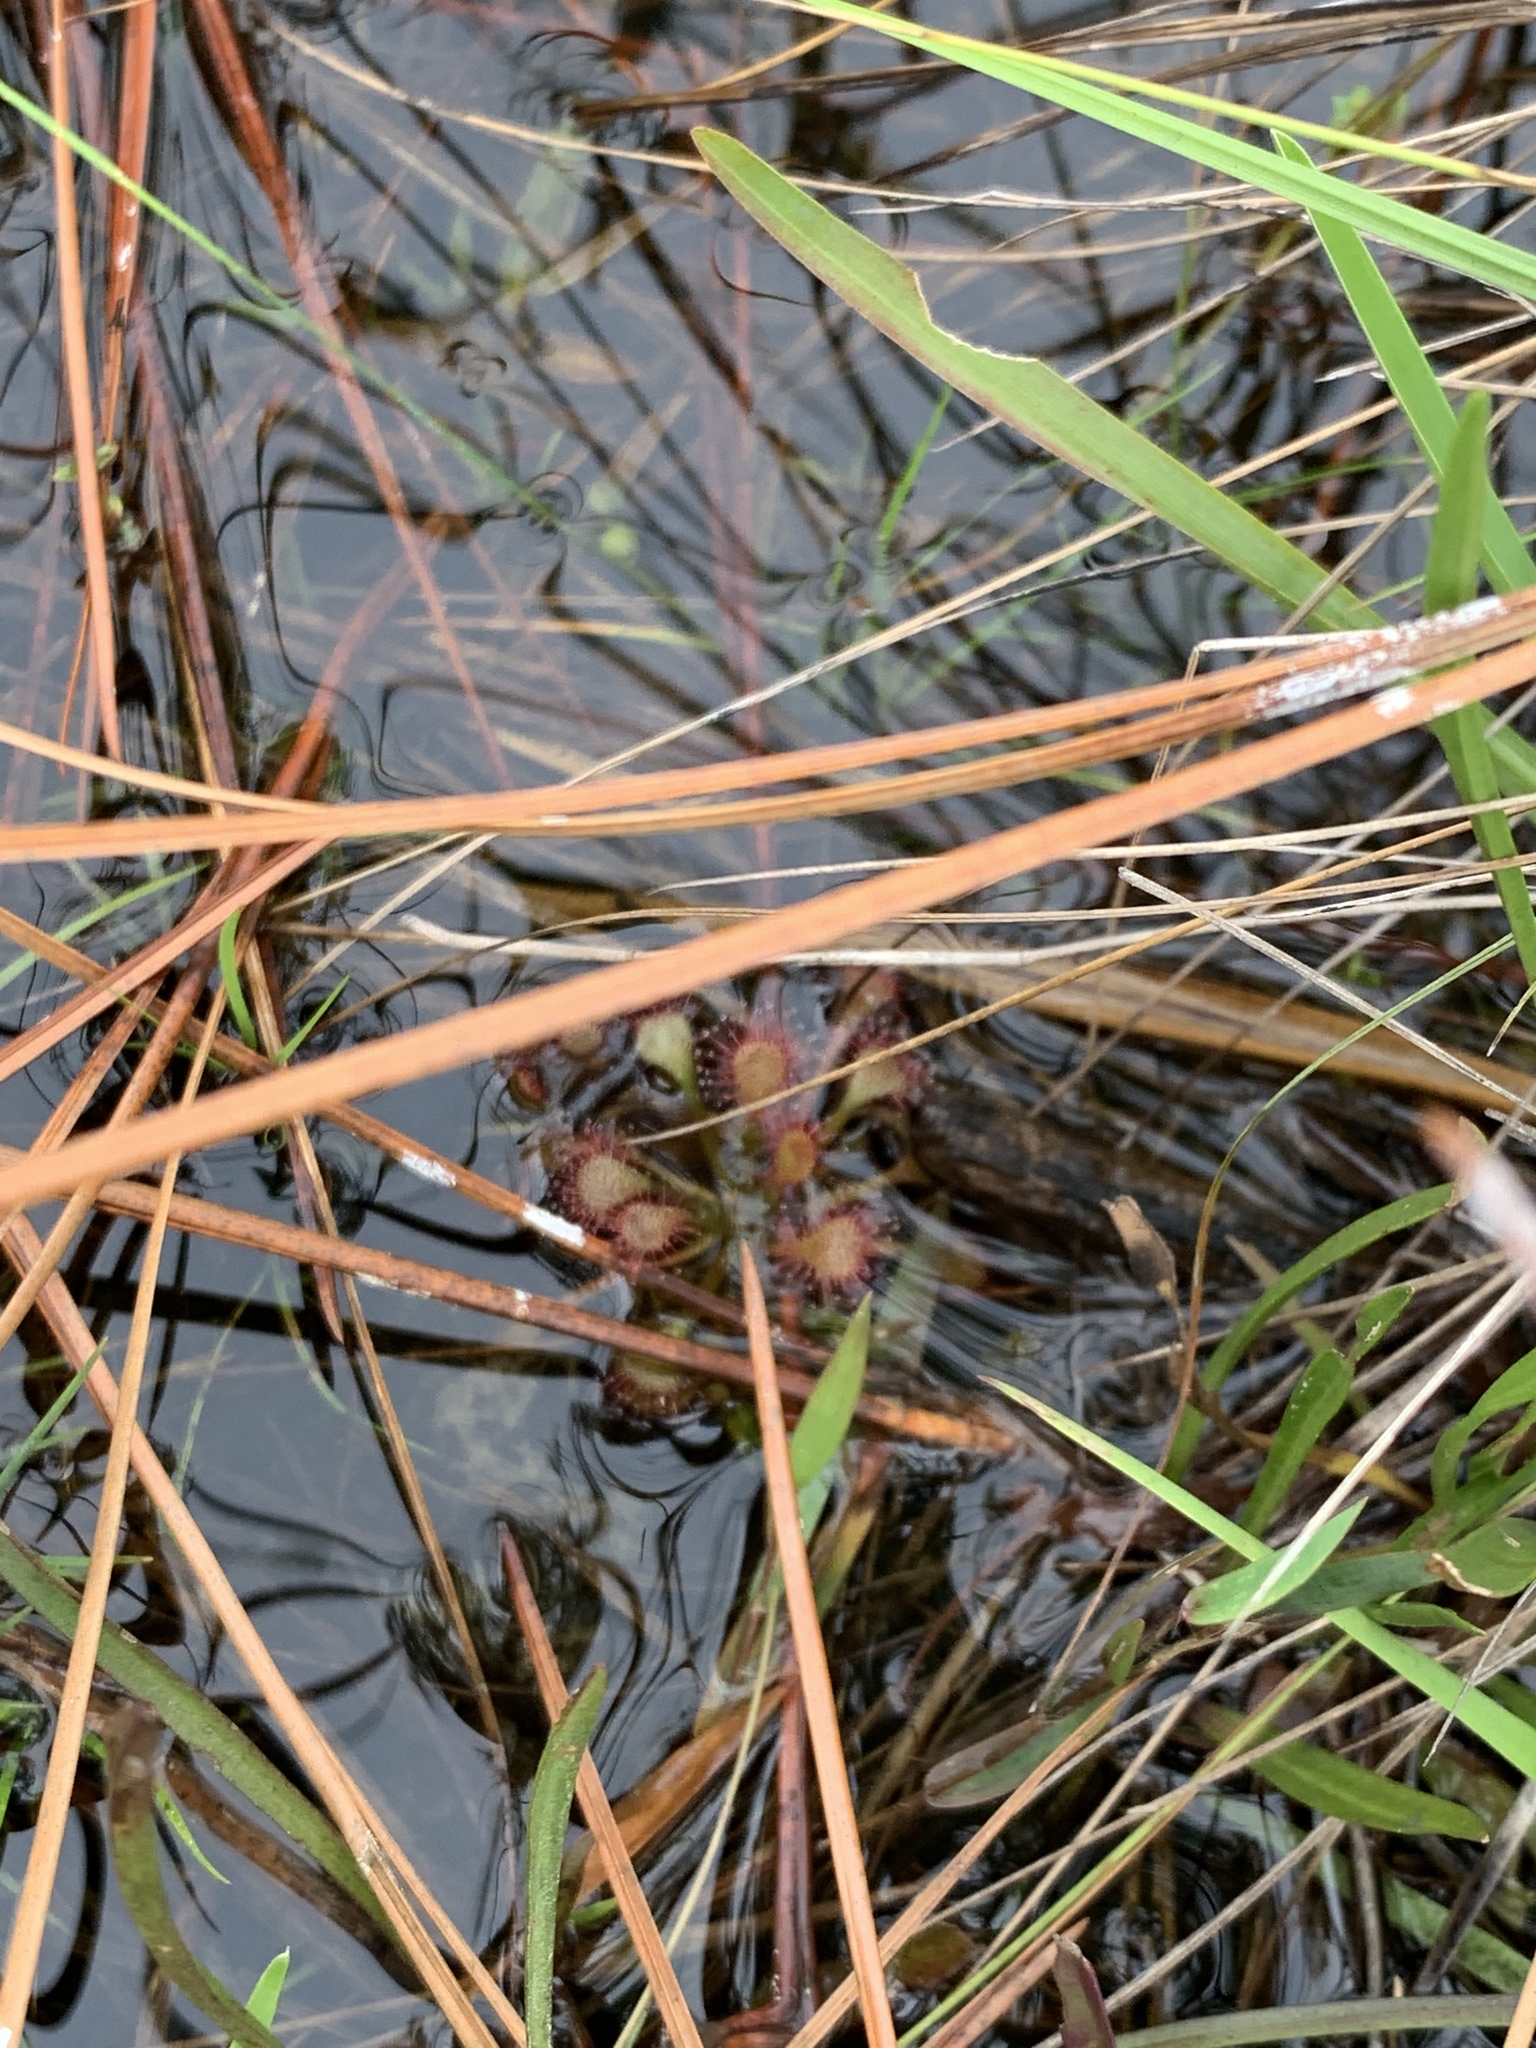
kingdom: Plantae
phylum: Tracheophyta
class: Magnoliopsida
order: Caryophyllales
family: Droseraceae
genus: Drosera
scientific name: Drosera capillaris
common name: Pink sundew
